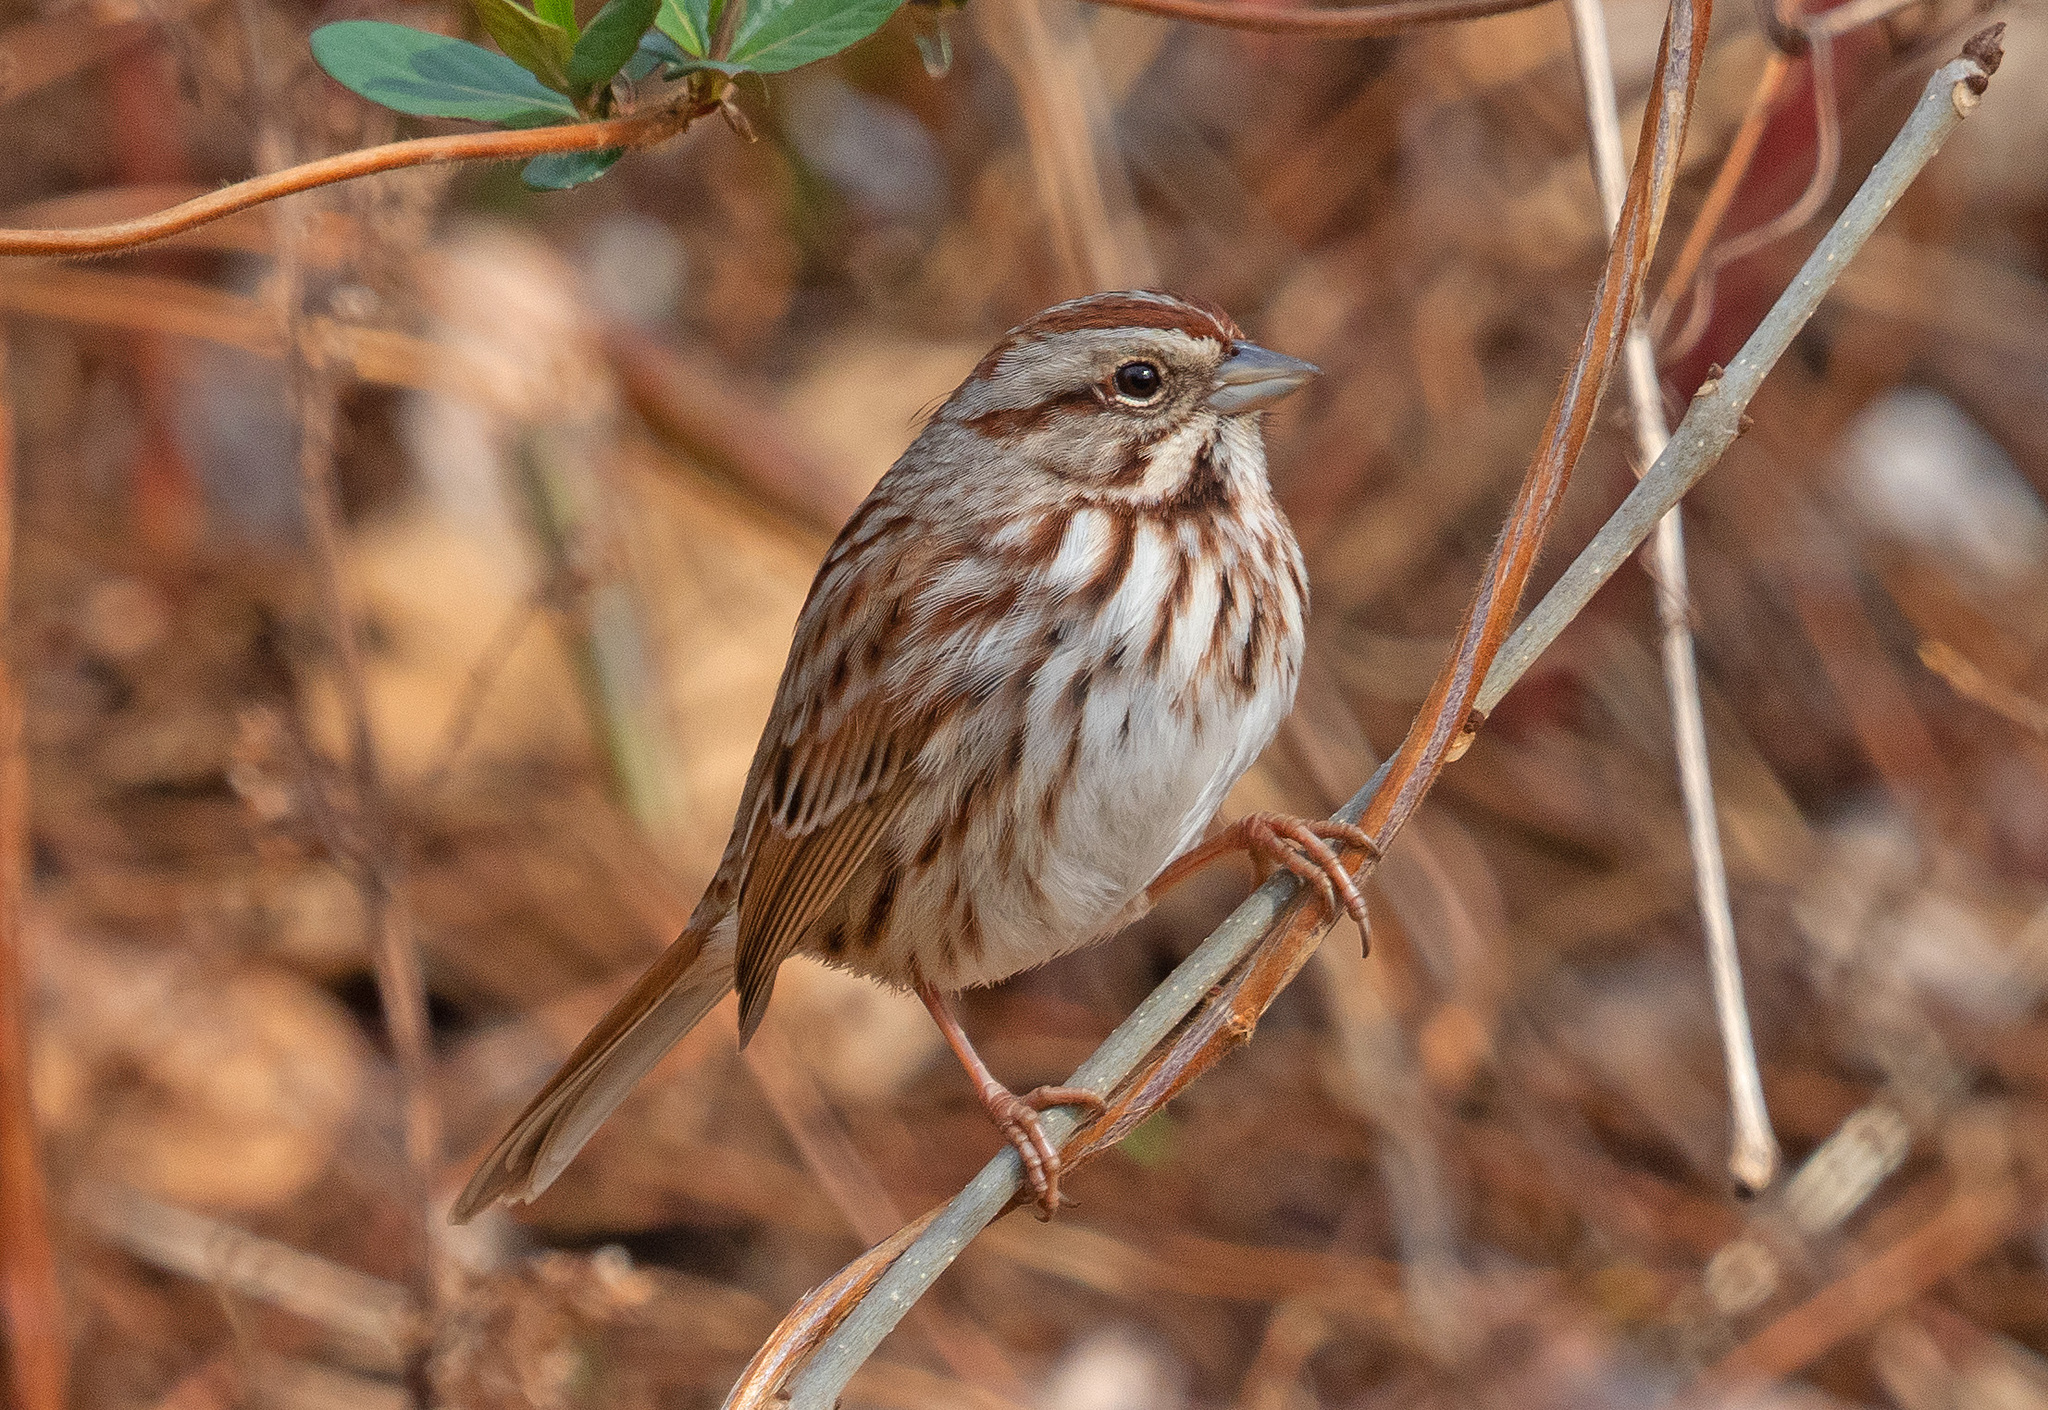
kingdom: Animalia
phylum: Chordata
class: Aves
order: Passeriformes
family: Passerellidae
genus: Melospiza
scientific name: Melospiza melodia
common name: Song sparrow
